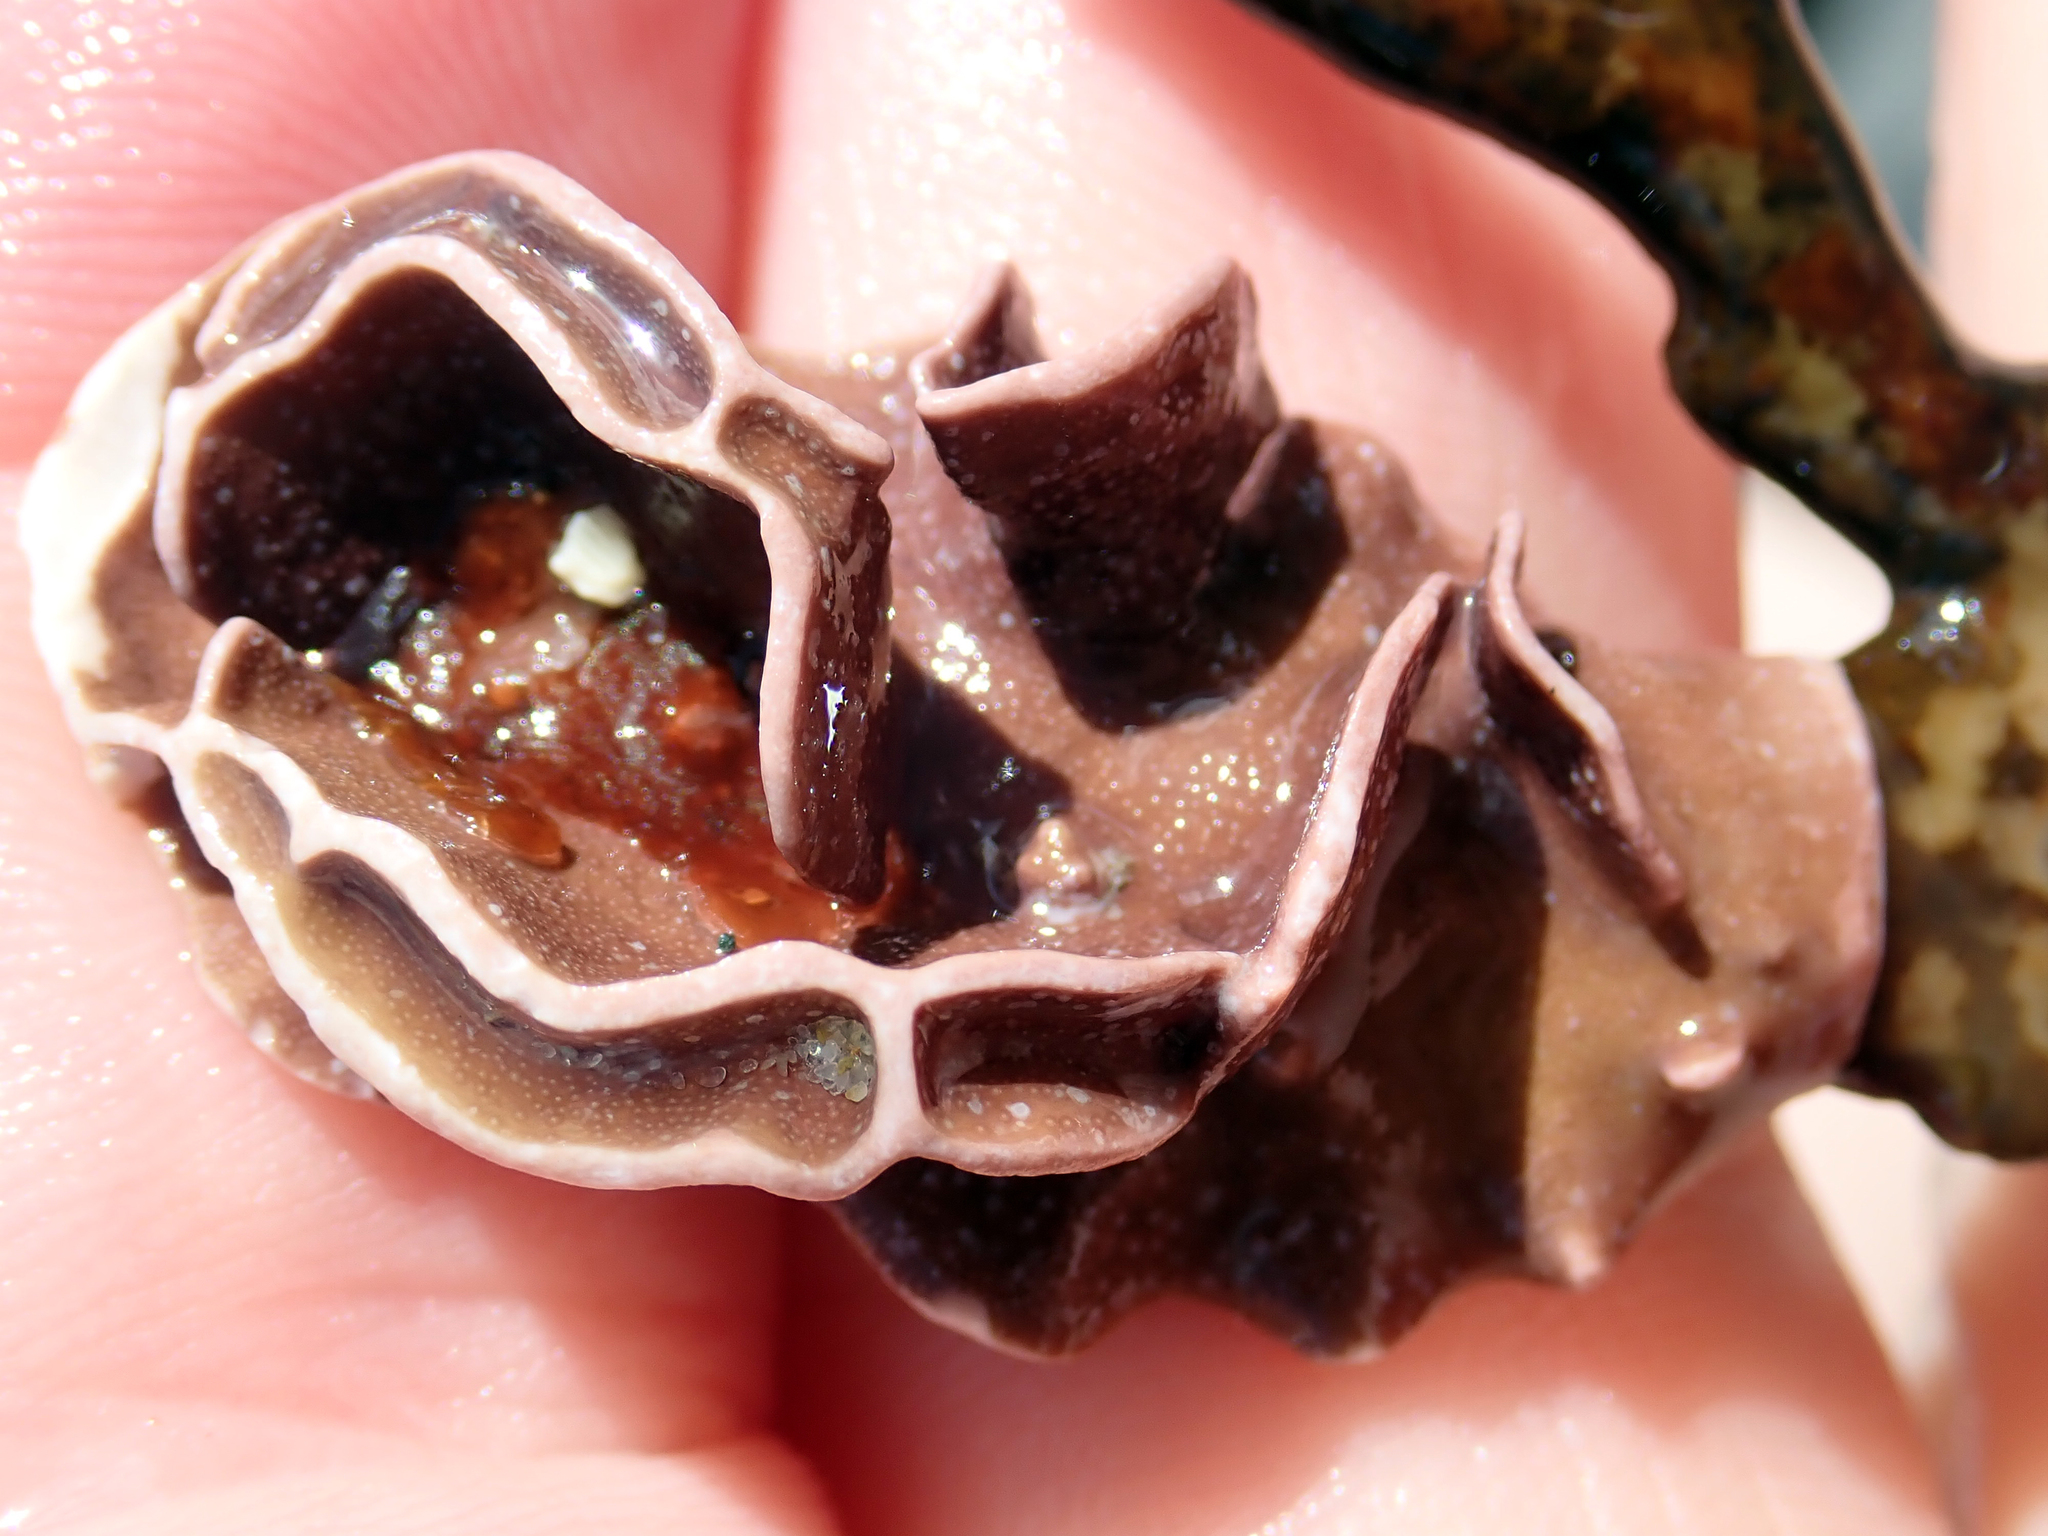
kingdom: Plantae
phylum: Rhodophyta
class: Florideophyceae
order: Corallinales
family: Lithophyllaceae
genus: Lithophyllum
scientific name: Lithophyllum carpophylli
